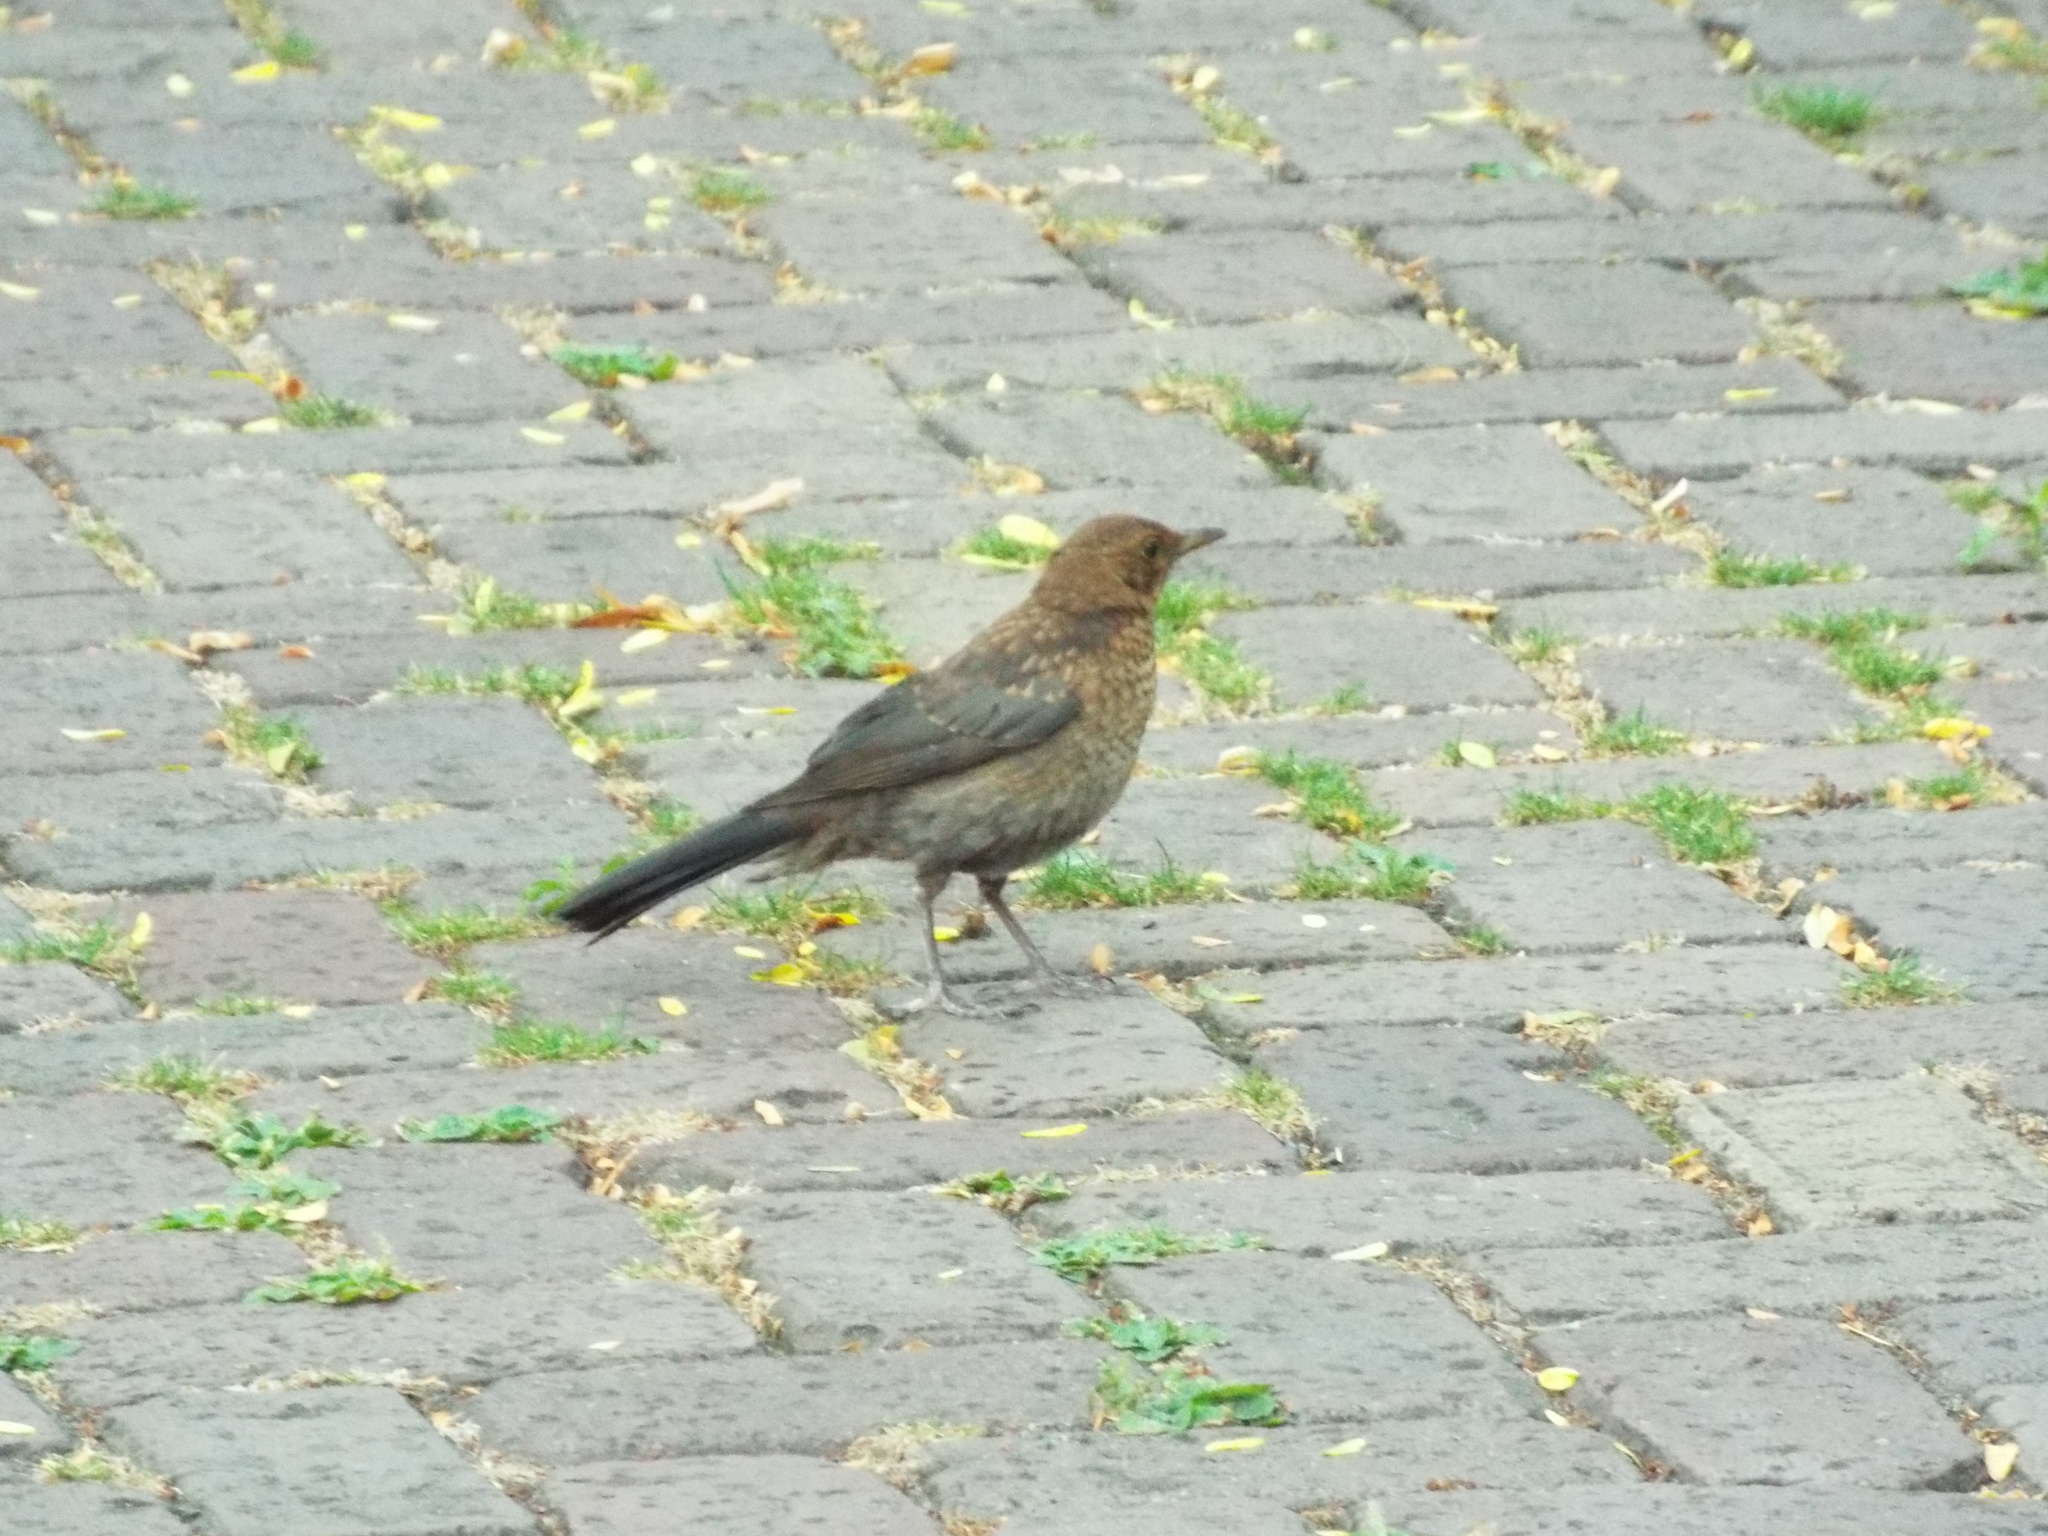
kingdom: Animalia
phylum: Chordata
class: Aves
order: Passeriformes
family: Turdidae
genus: Turdus
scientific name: Turdus merula
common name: Common blackbird
